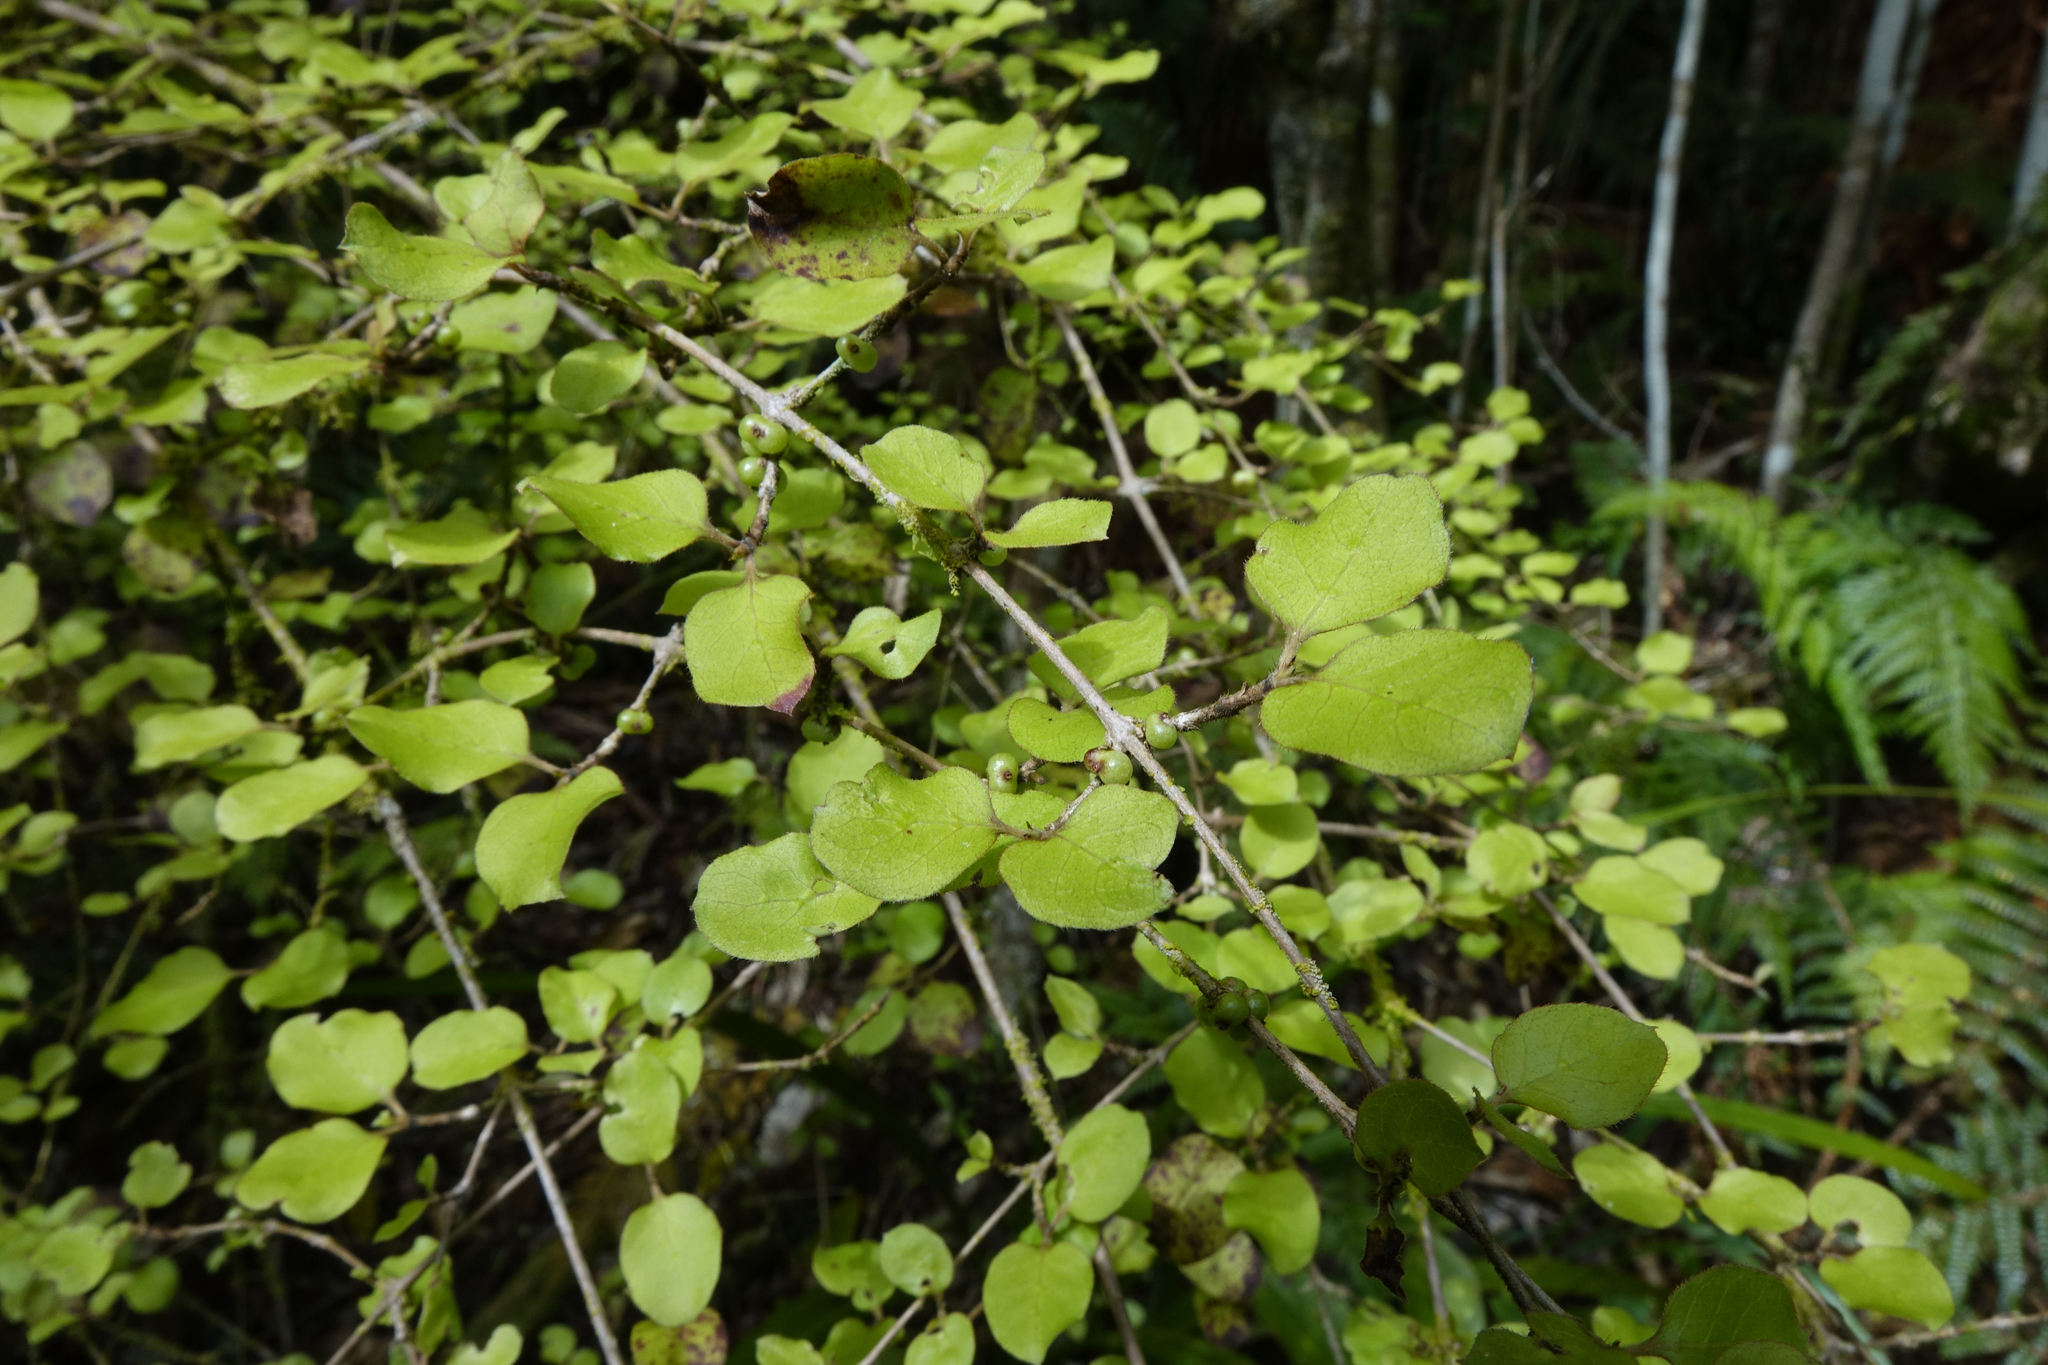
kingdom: Plantae
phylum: Tracheophyta
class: Magnoliopsida
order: Gentianales
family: Rubiaceae
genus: Coprosma
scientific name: Coprosma rotundifolia
